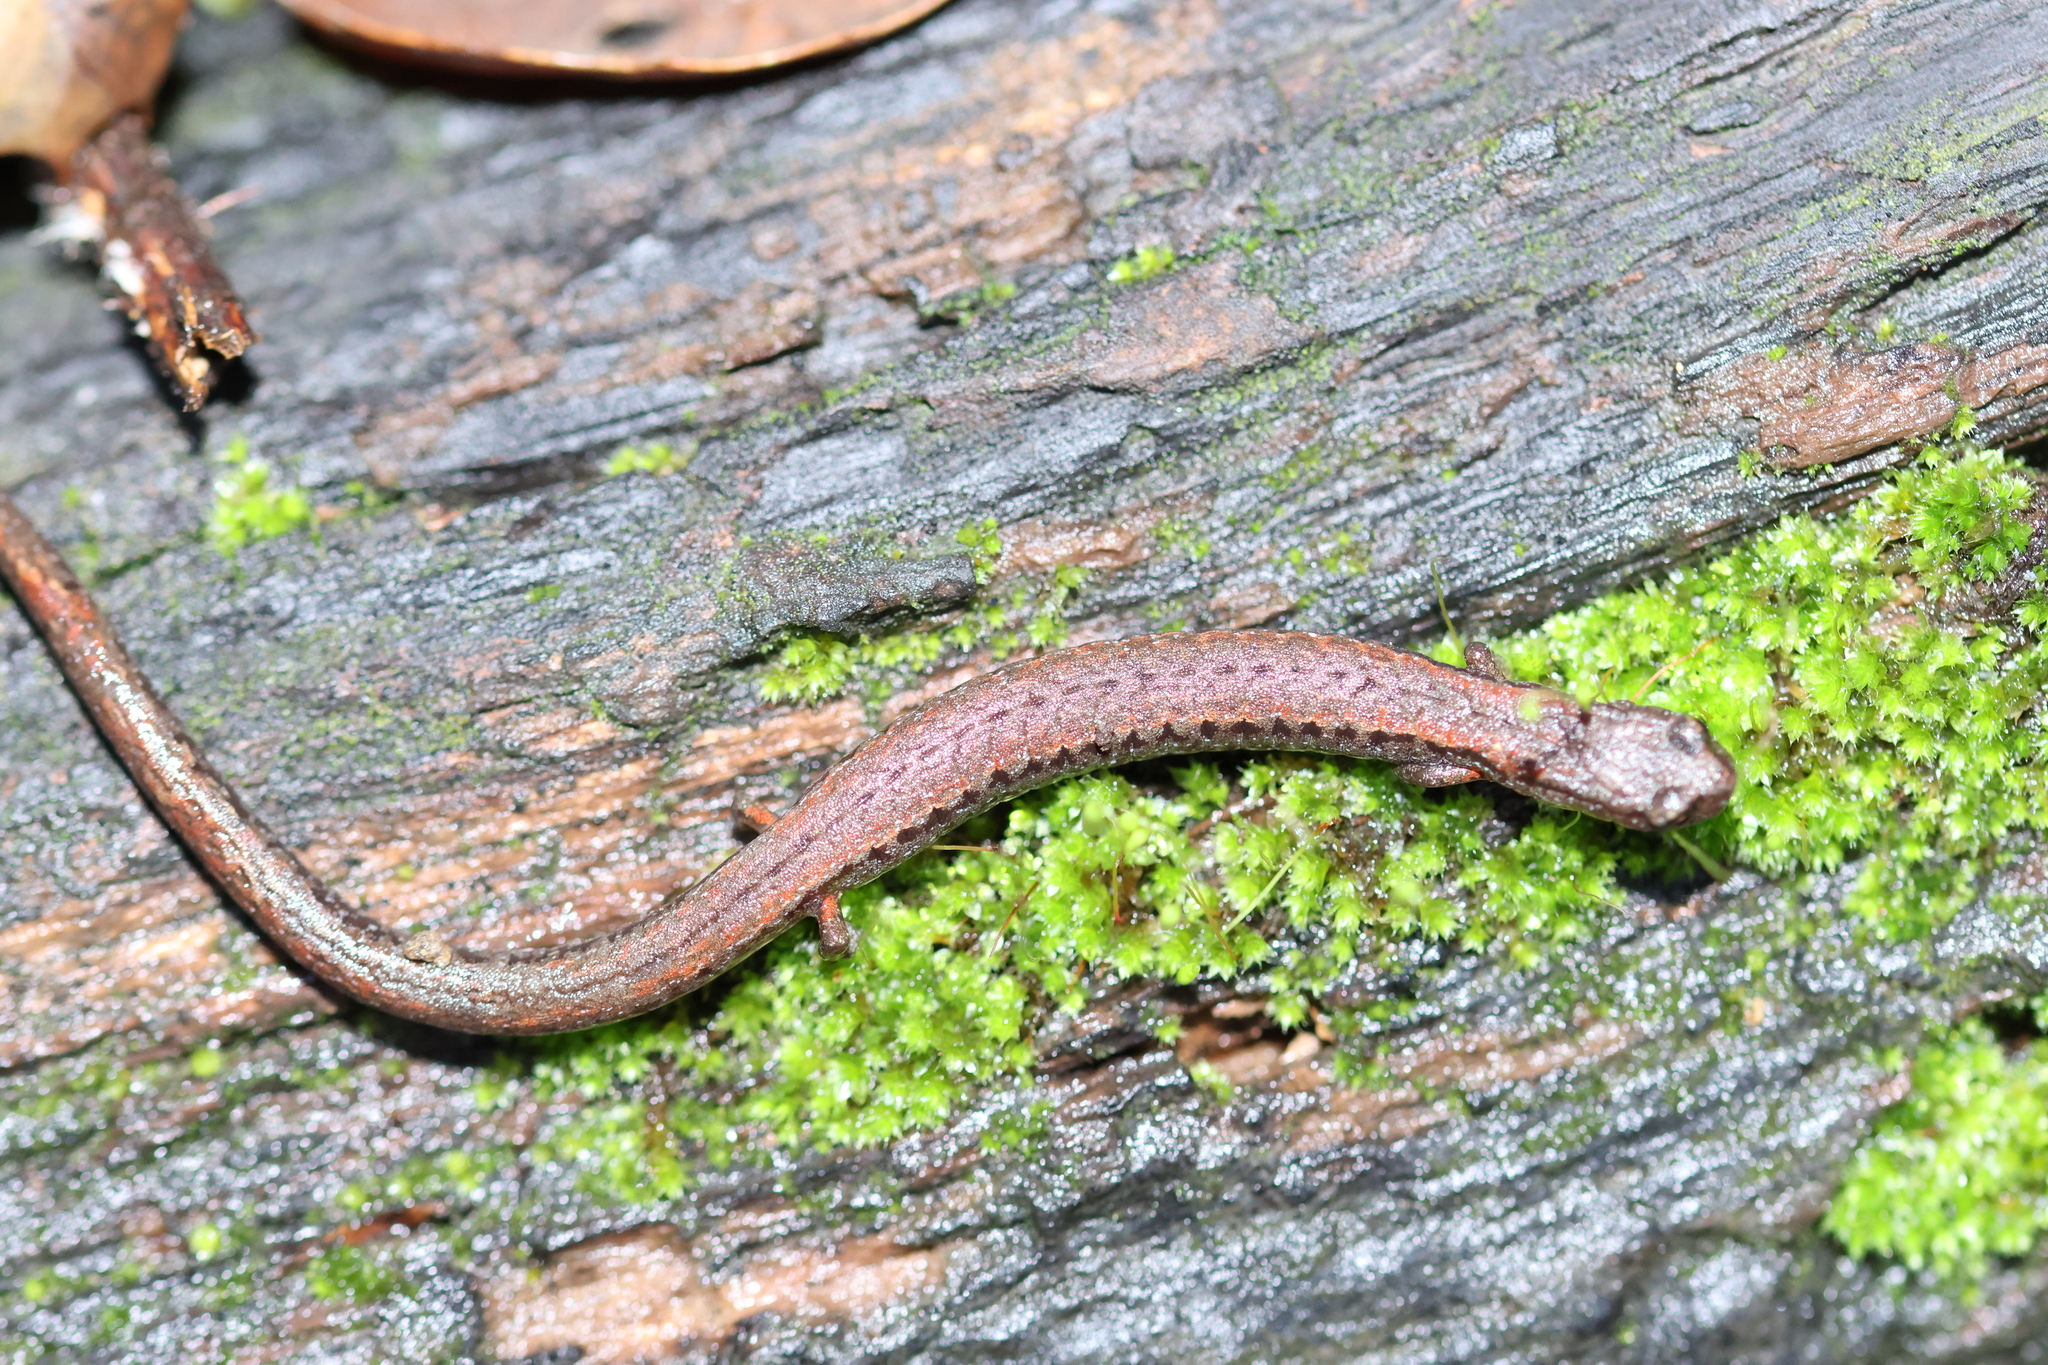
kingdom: Animalia
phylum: Chordata
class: Amphibia
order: Caudata
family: Plethodontidae
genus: Batrachoseps
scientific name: Batrachoseps attenuatus
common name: California slender salamander
